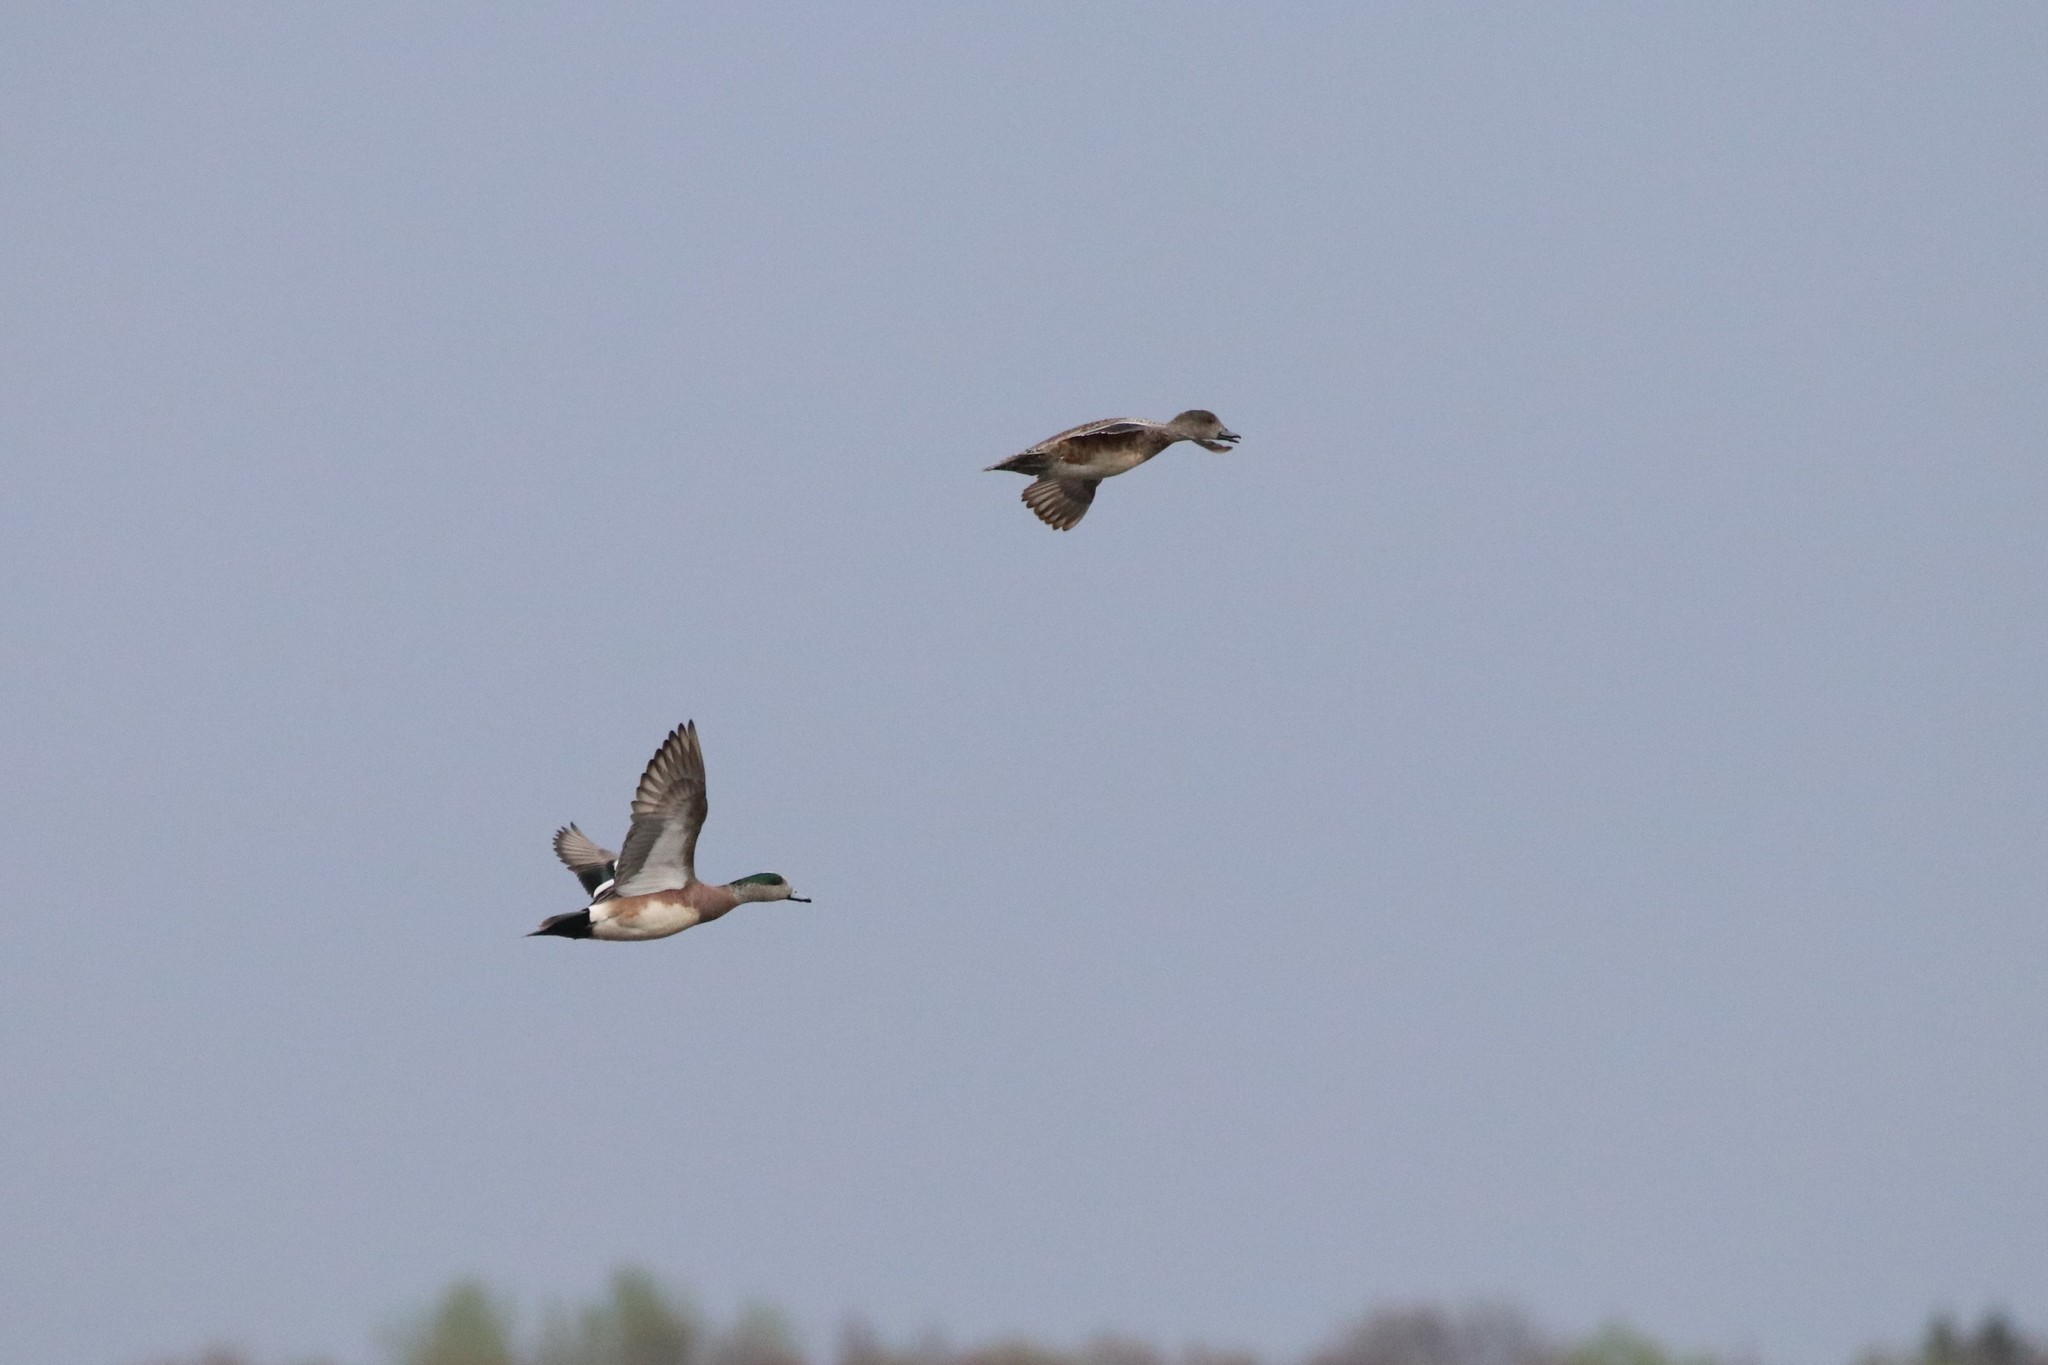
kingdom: Animalia
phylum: Chordata
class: Aves
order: Anseriformes
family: Anatidae
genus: Mareca
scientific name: Mareca americana
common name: American wigeon
